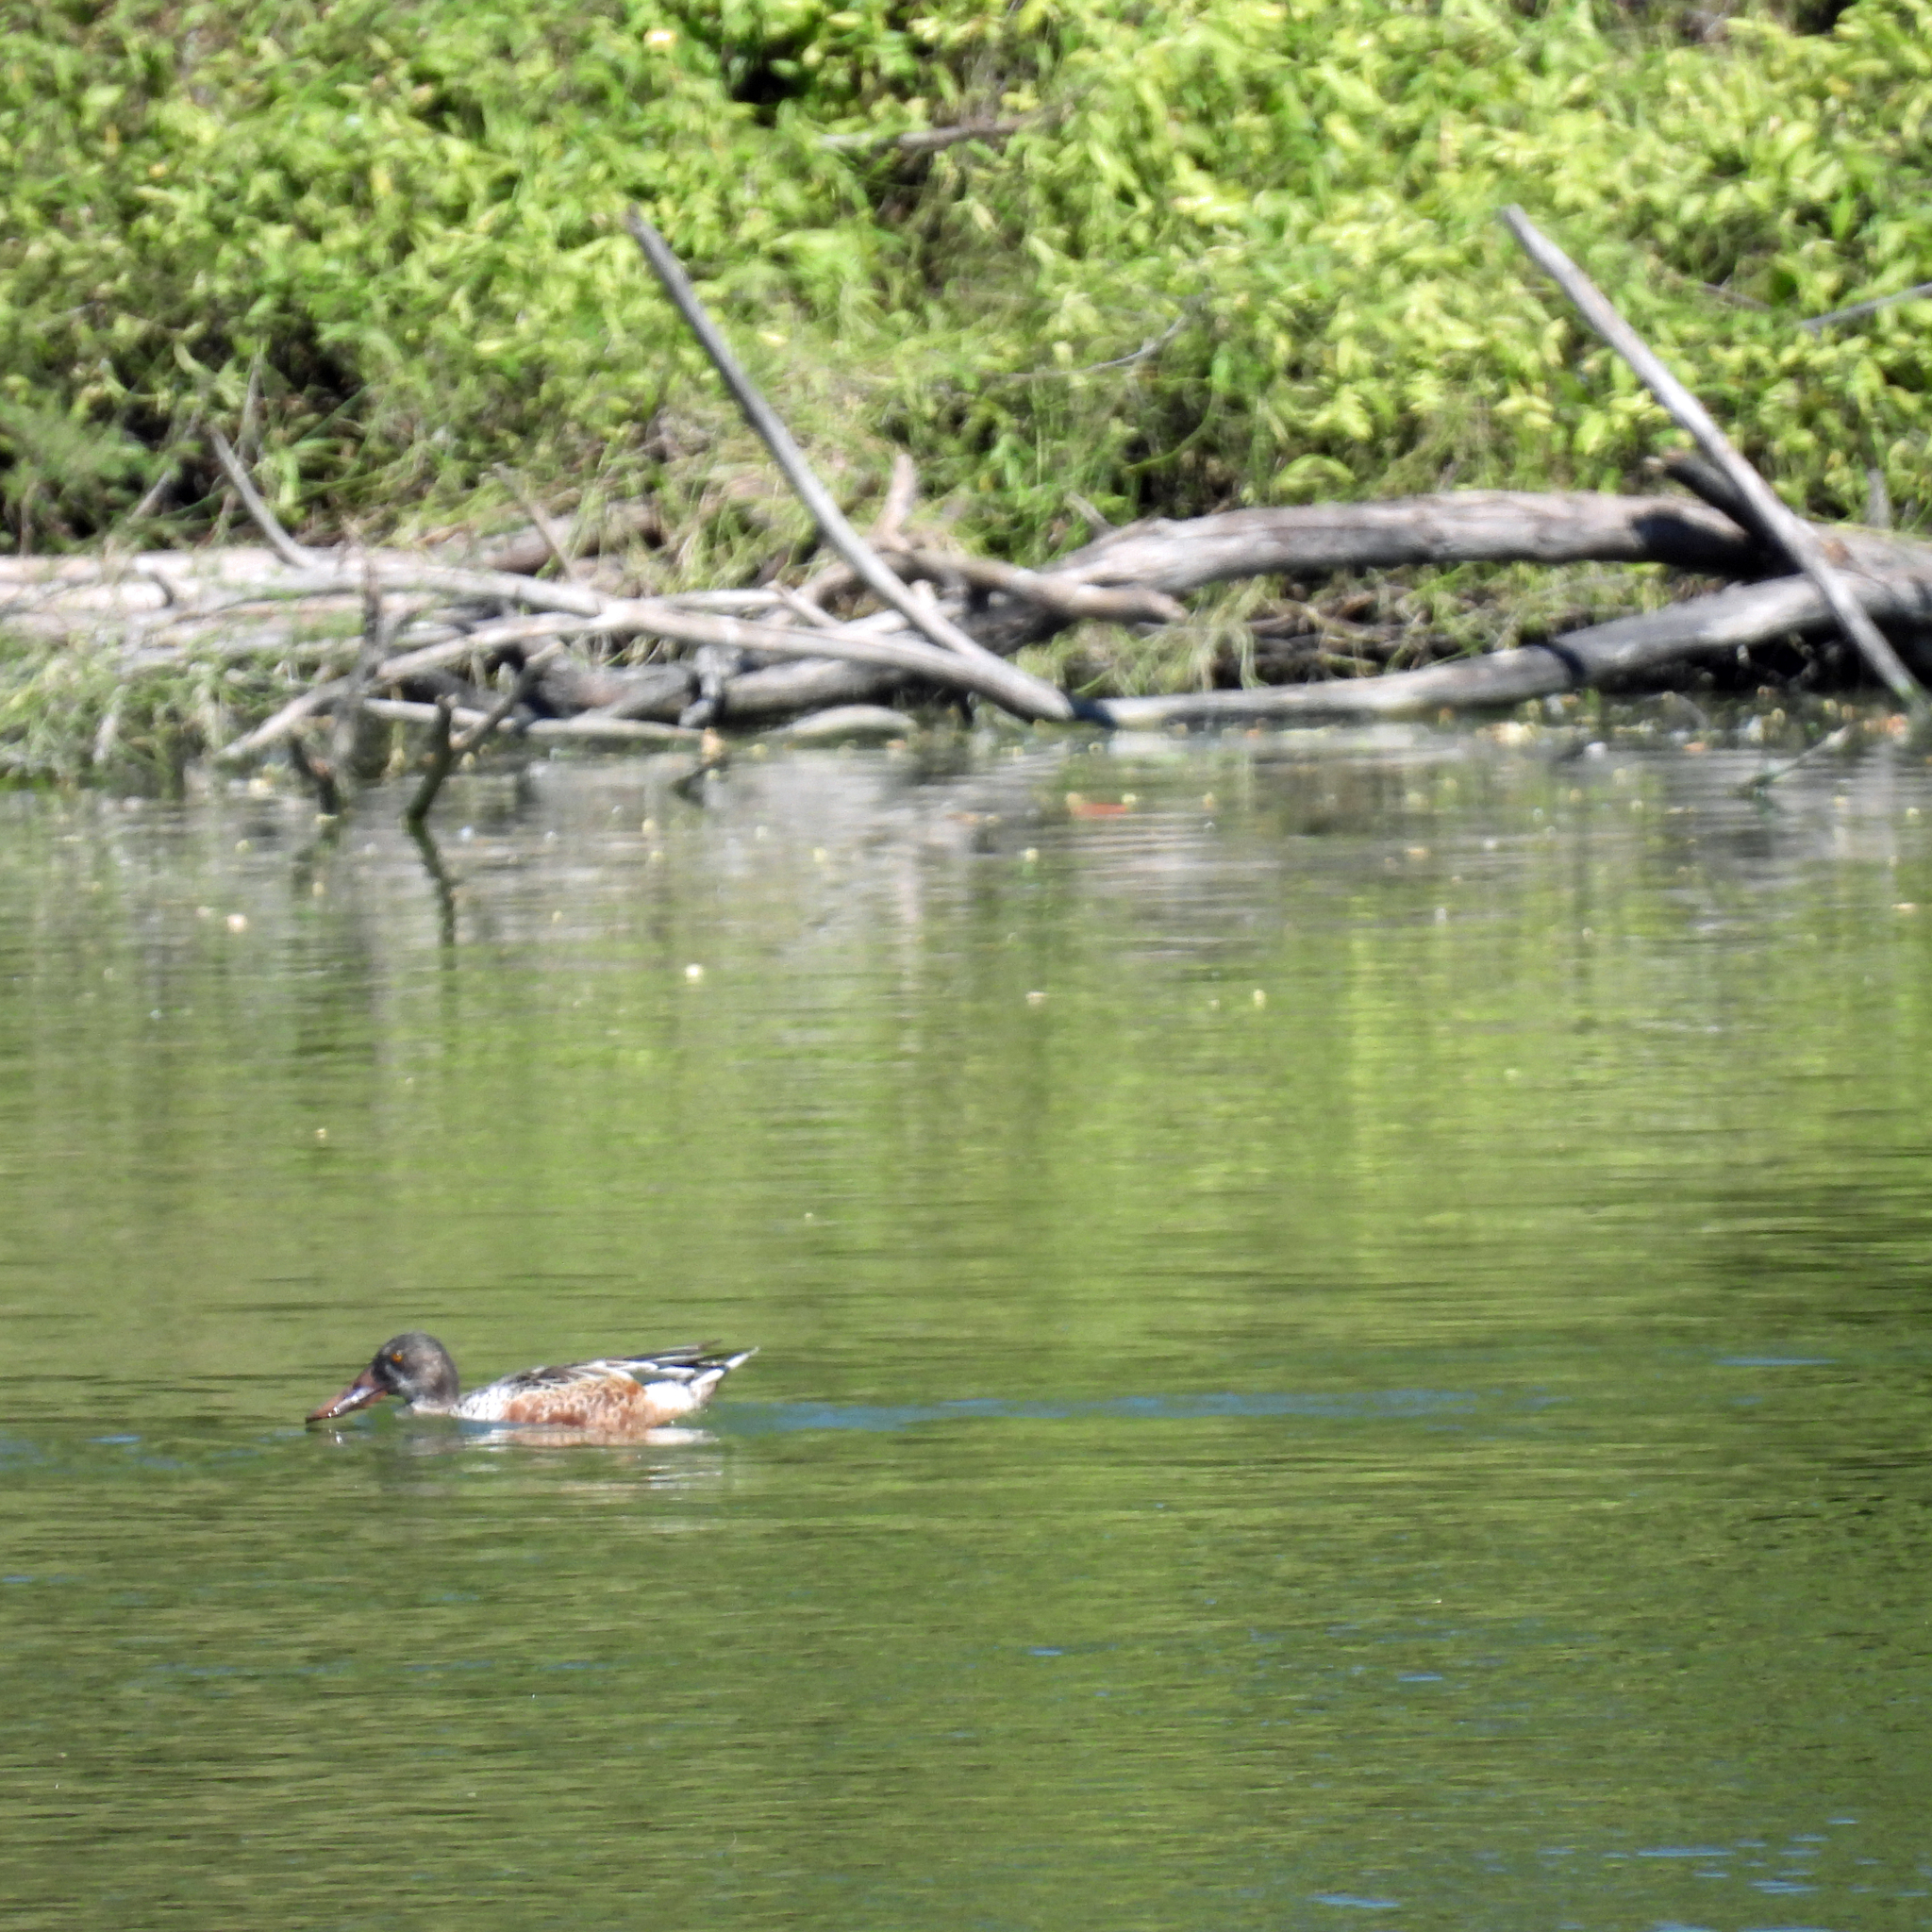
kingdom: Animalia
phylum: Chordata
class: Aves
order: Anseriformes
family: Anatidae
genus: Spatula
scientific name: Spatula clypeata
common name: Northern shoveler
